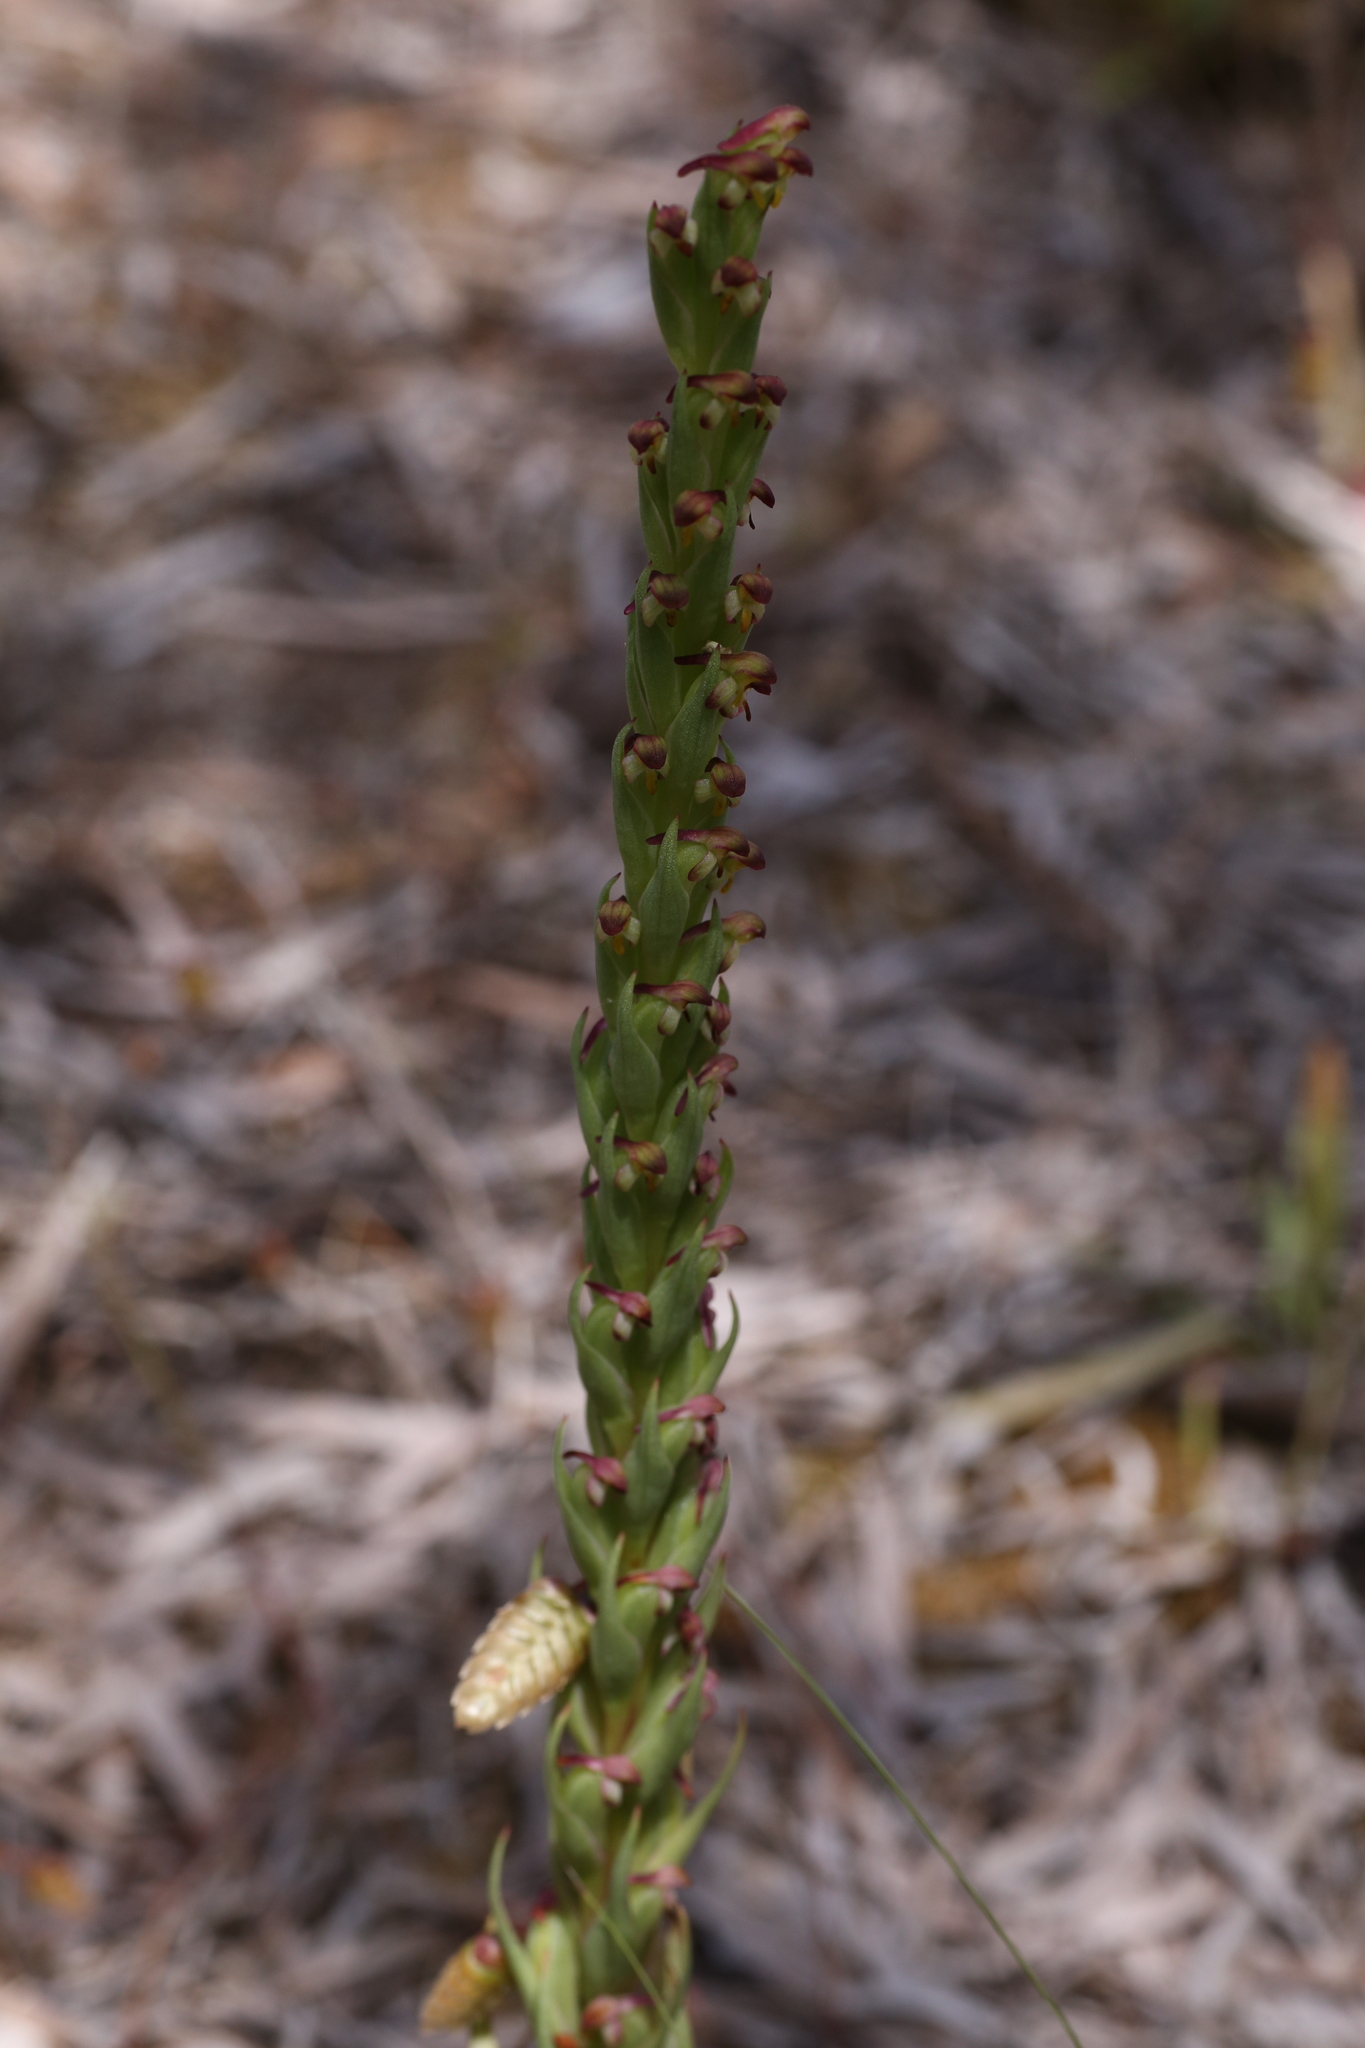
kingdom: Plantae
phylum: Tracheophyta
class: Liliopsida
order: Asparagales
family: Orchidaceae
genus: Disa
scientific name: Disa bracteata
